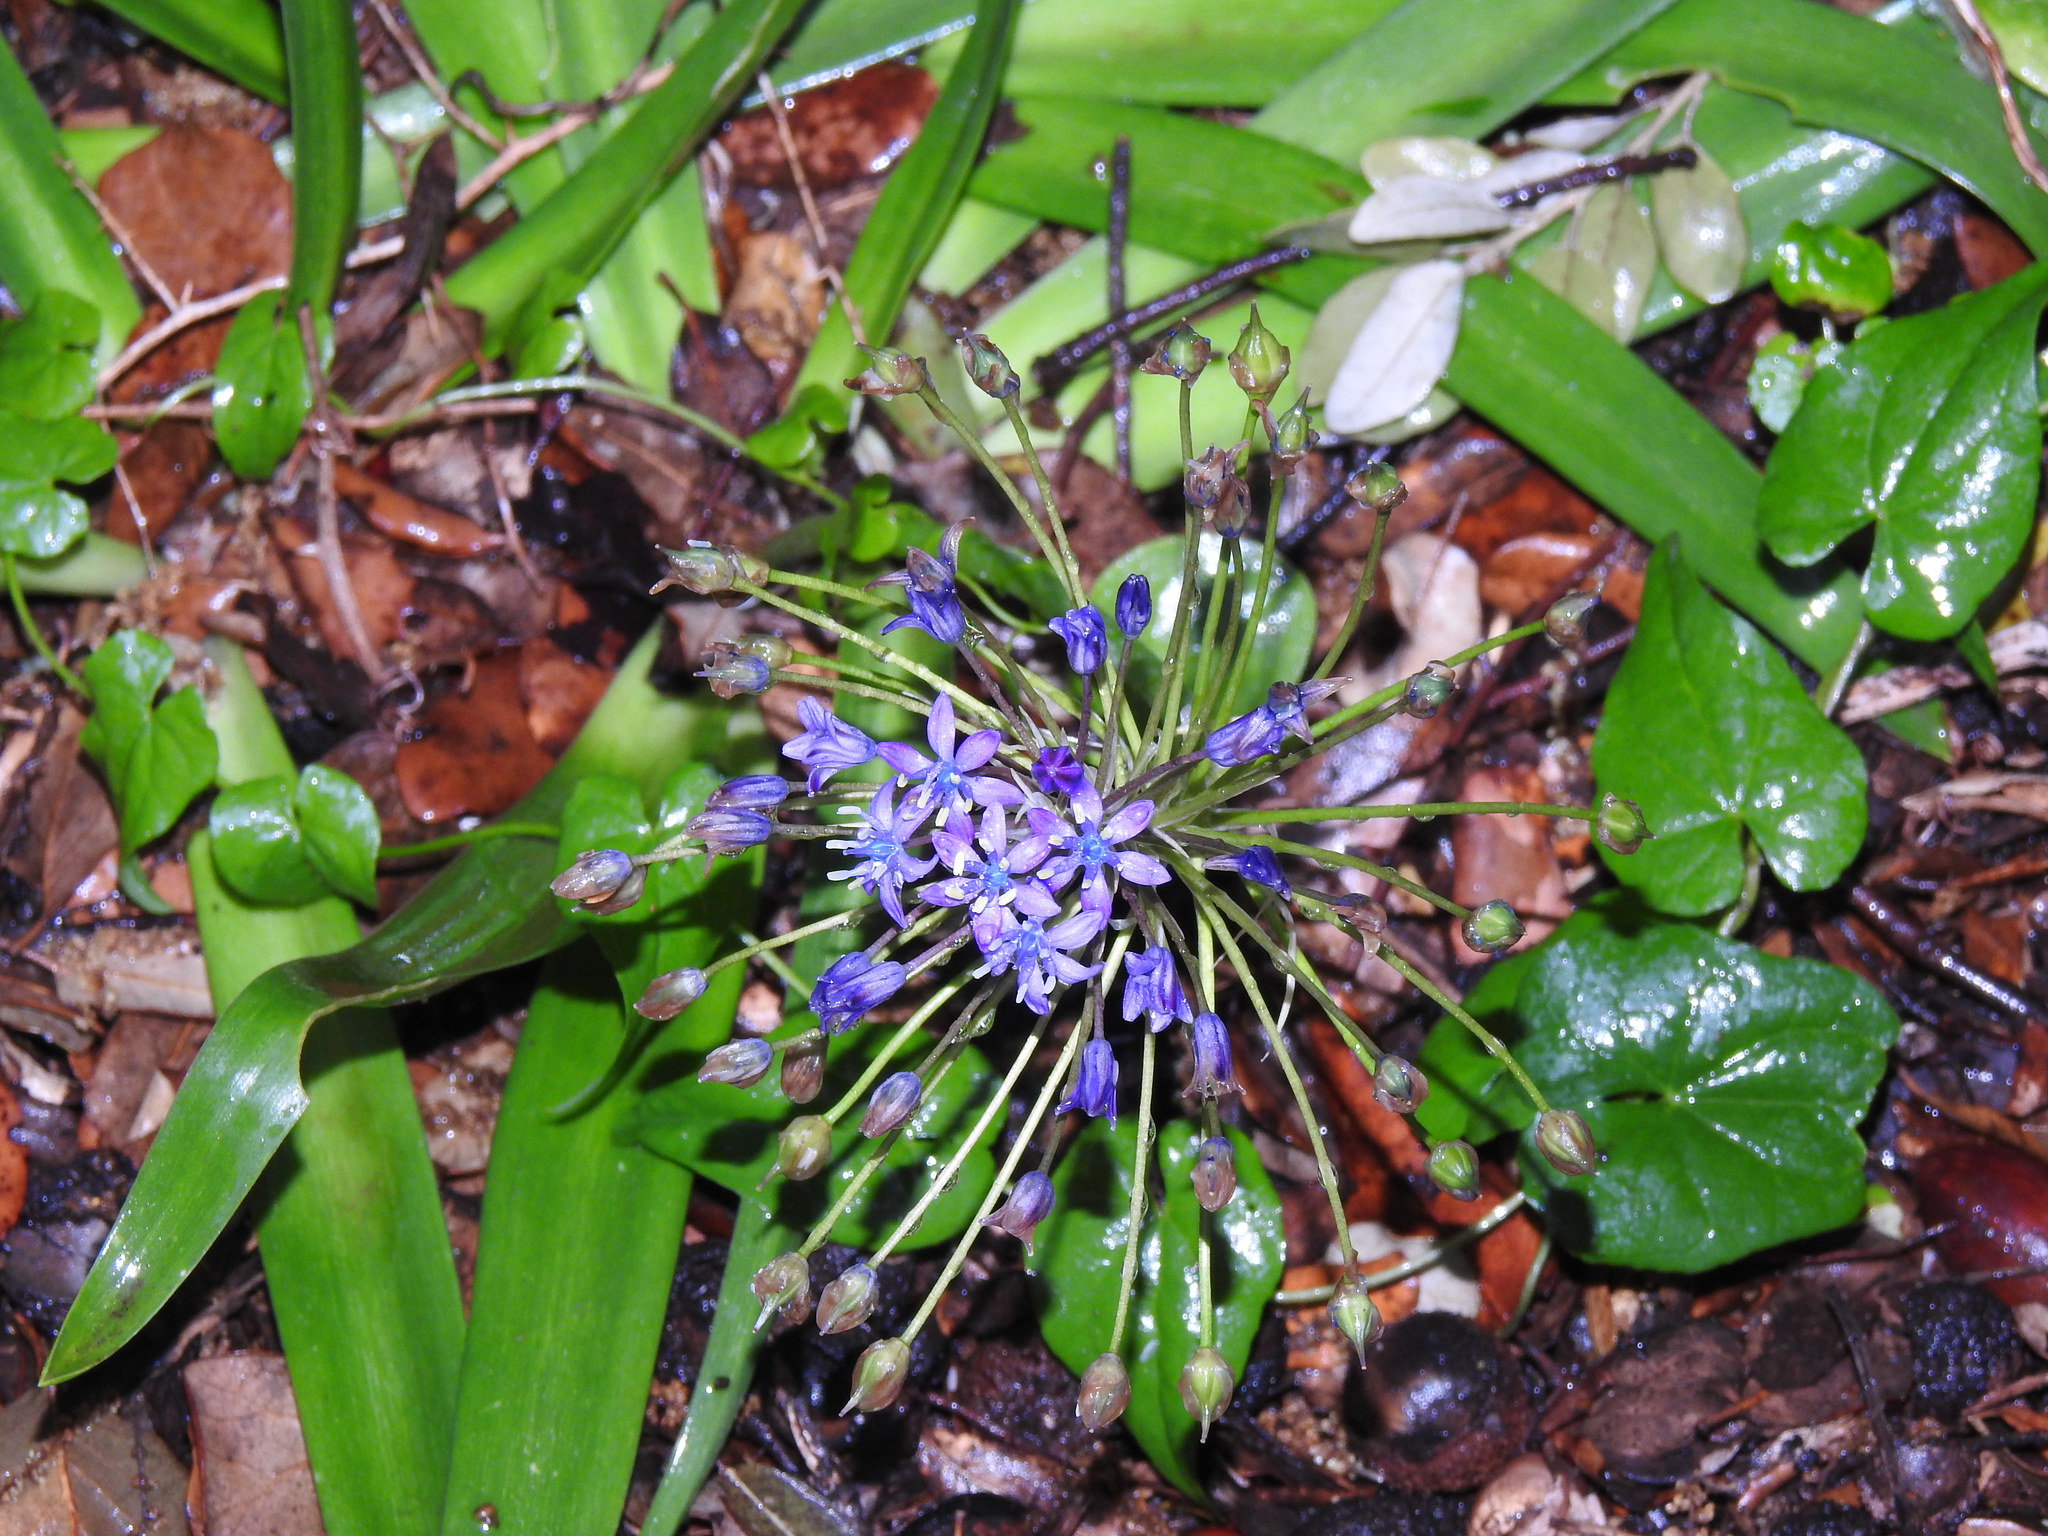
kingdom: Plantae
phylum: Tracheophyta
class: Liliopsida
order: Asparagales
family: Asparagaceae
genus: Scilla
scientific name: Scilla peruviana
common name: Portuguese squill
